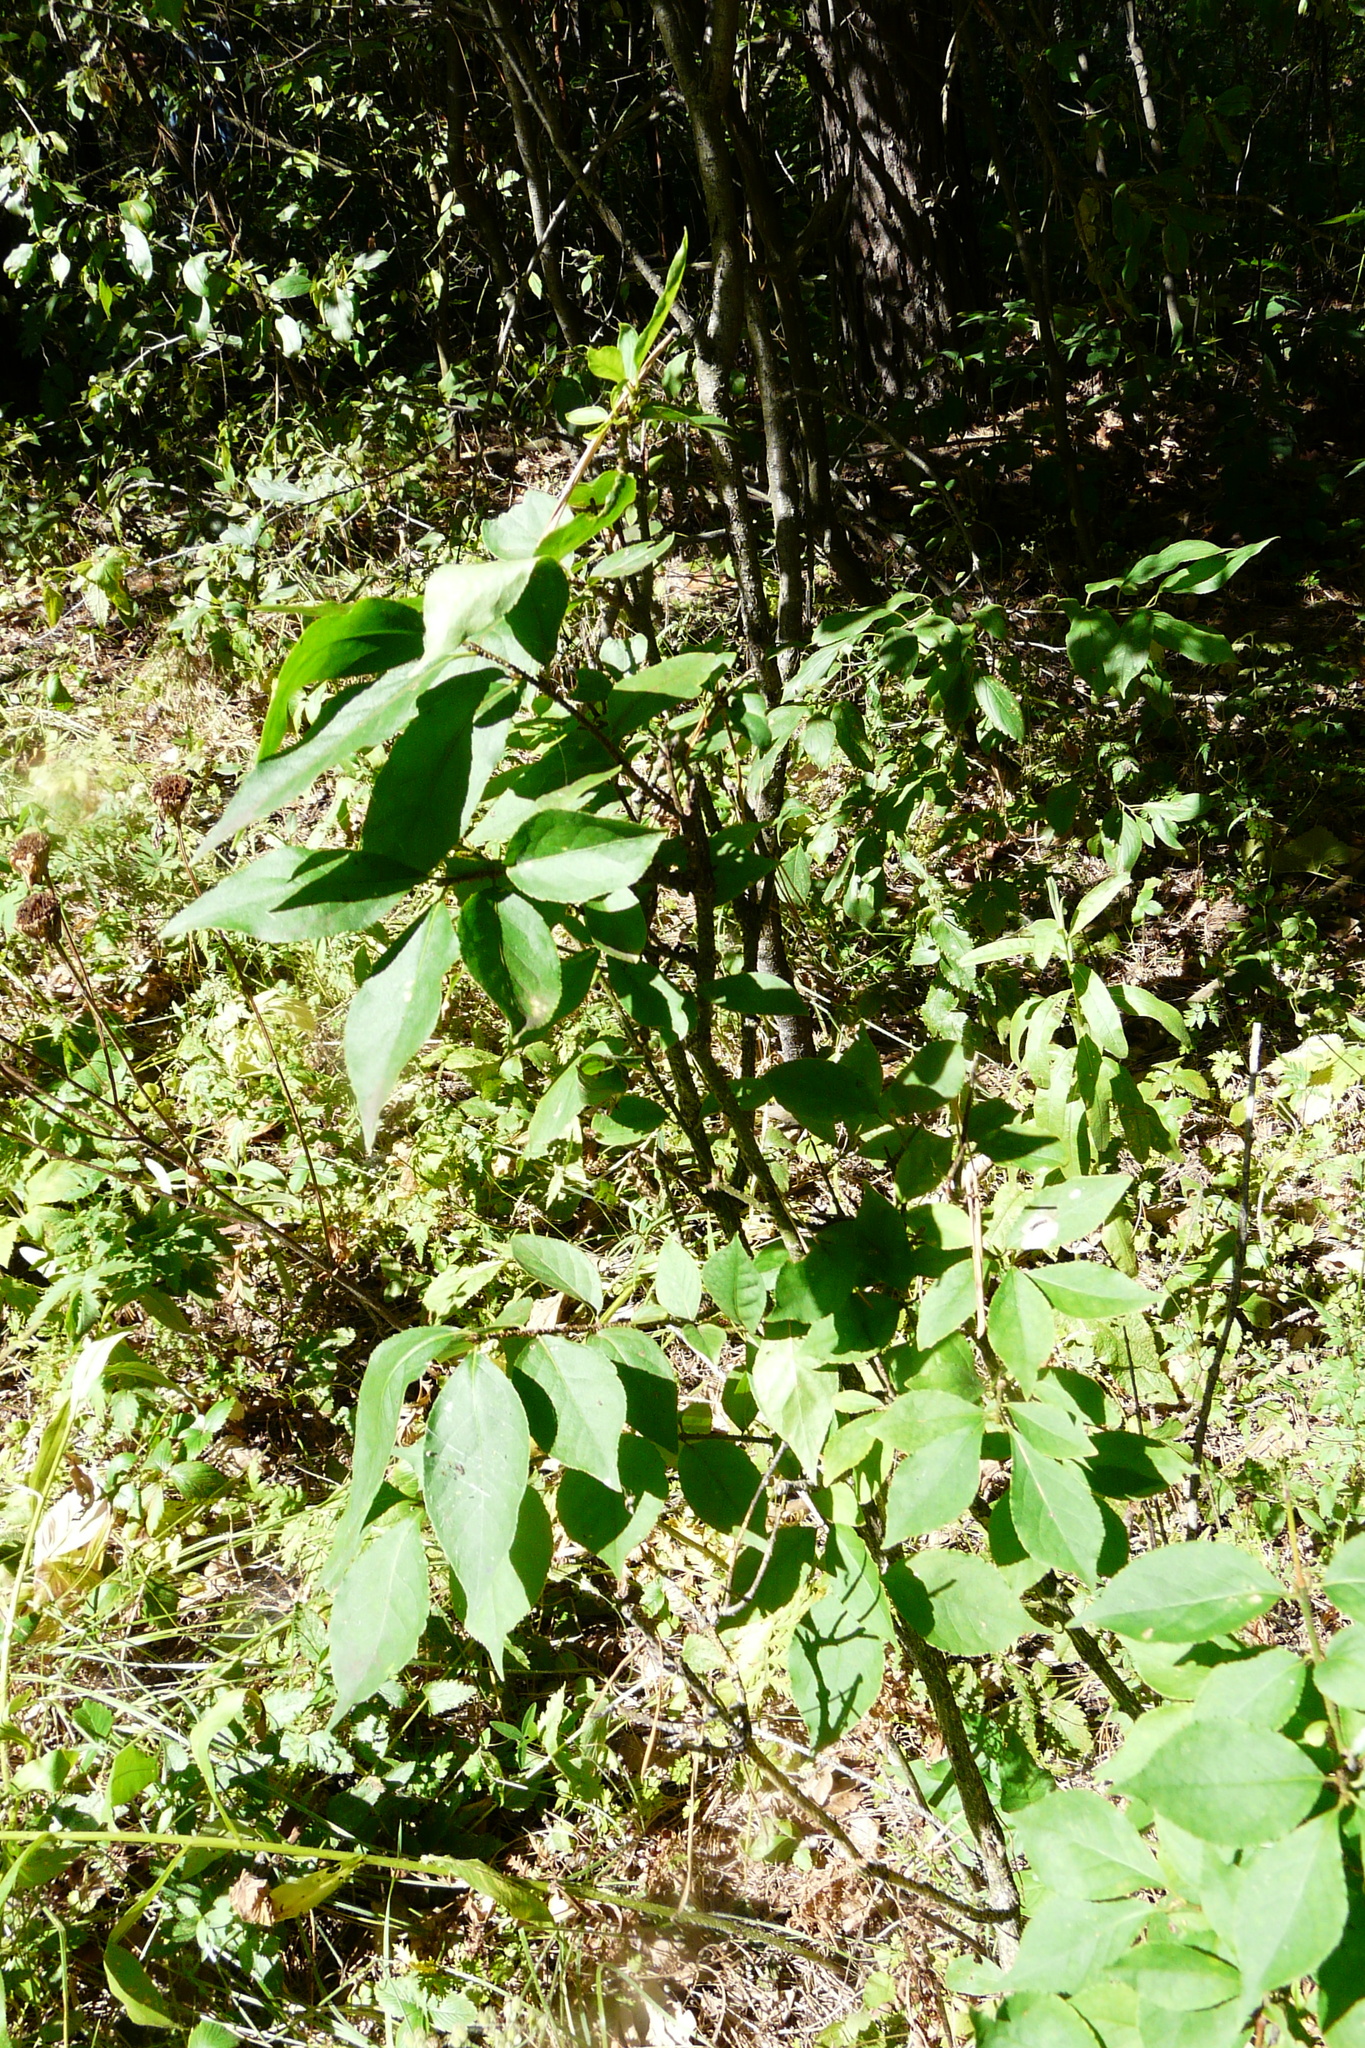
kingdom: Plantae
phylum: Tracheophyta
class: Magnoliopsida
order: Celastrales
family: Celastraceae
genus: Euonymus
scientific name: Euonymus verrucosus
